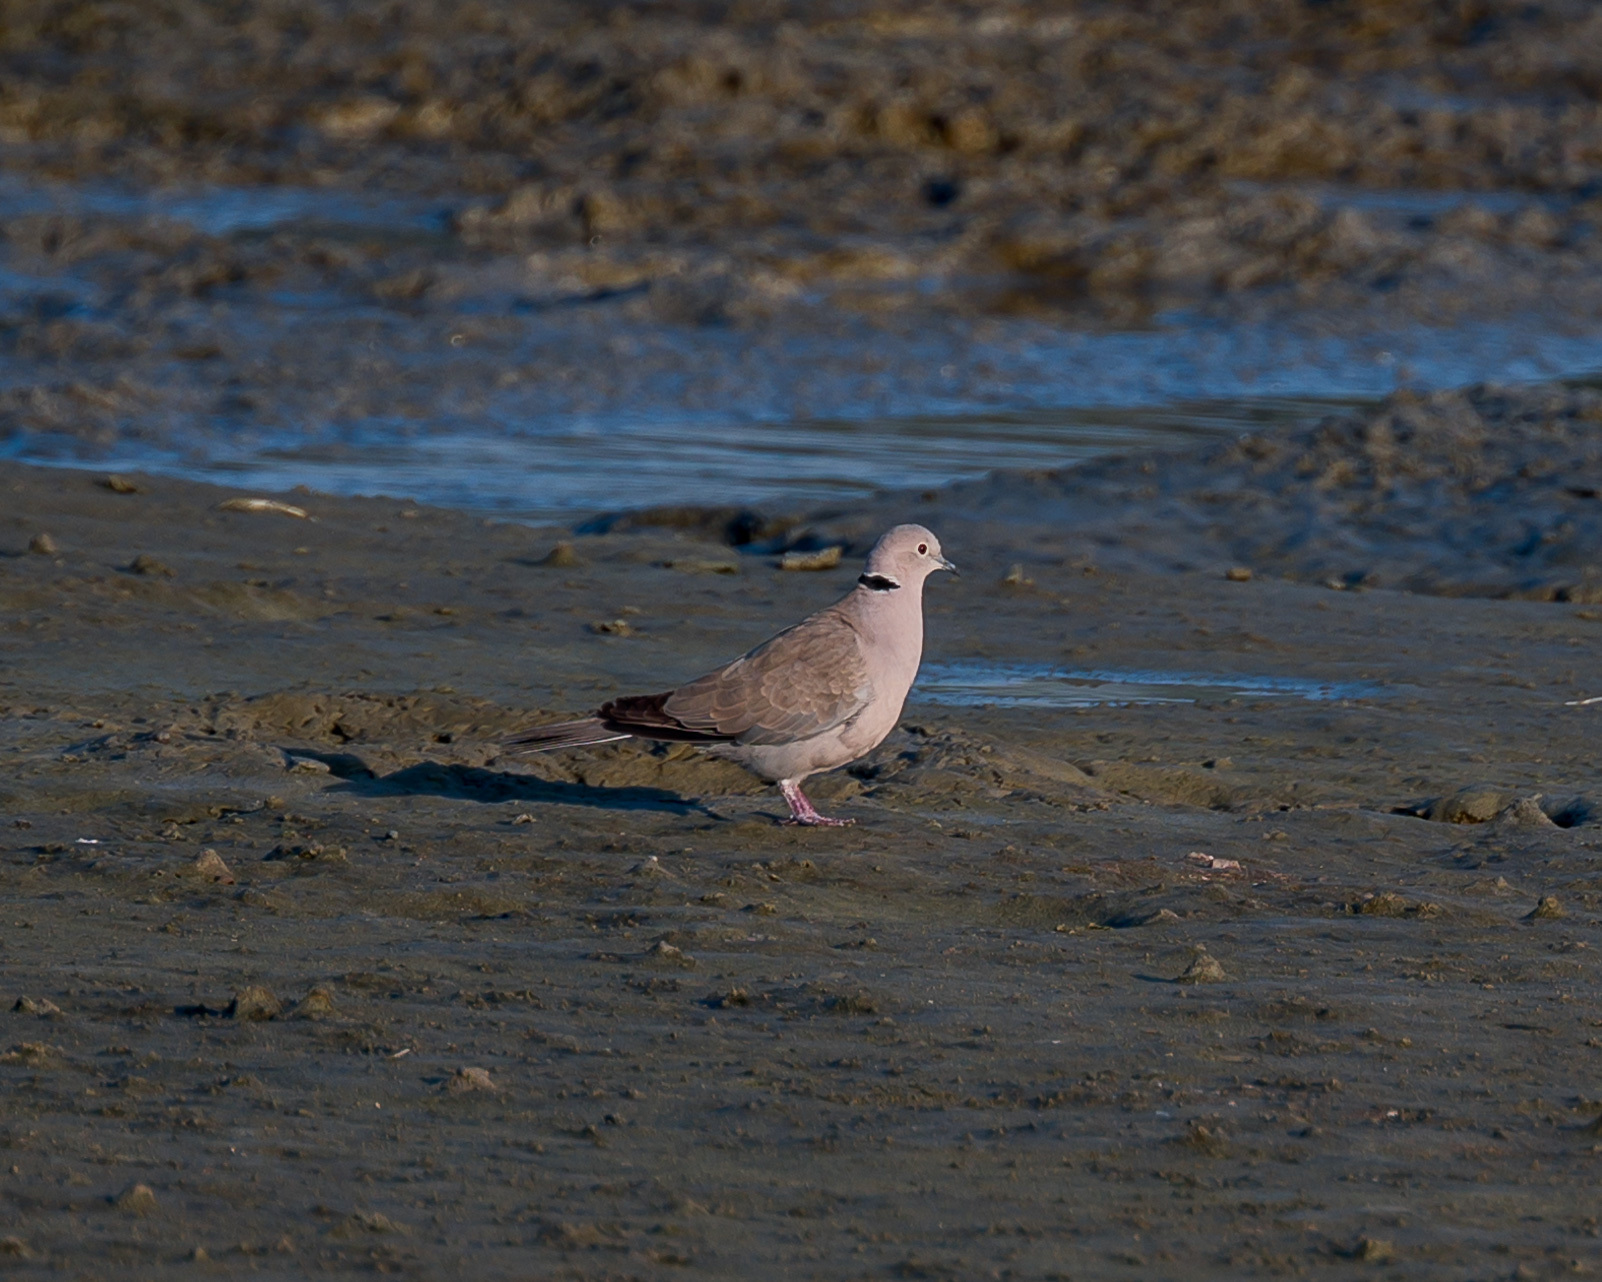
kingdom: Animalia
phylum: Chordata
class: Aves
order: Columbiformes
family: Columbidae
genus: Streptopelia
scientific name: Streptopelia decaocto
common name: Eurasian collared dove
